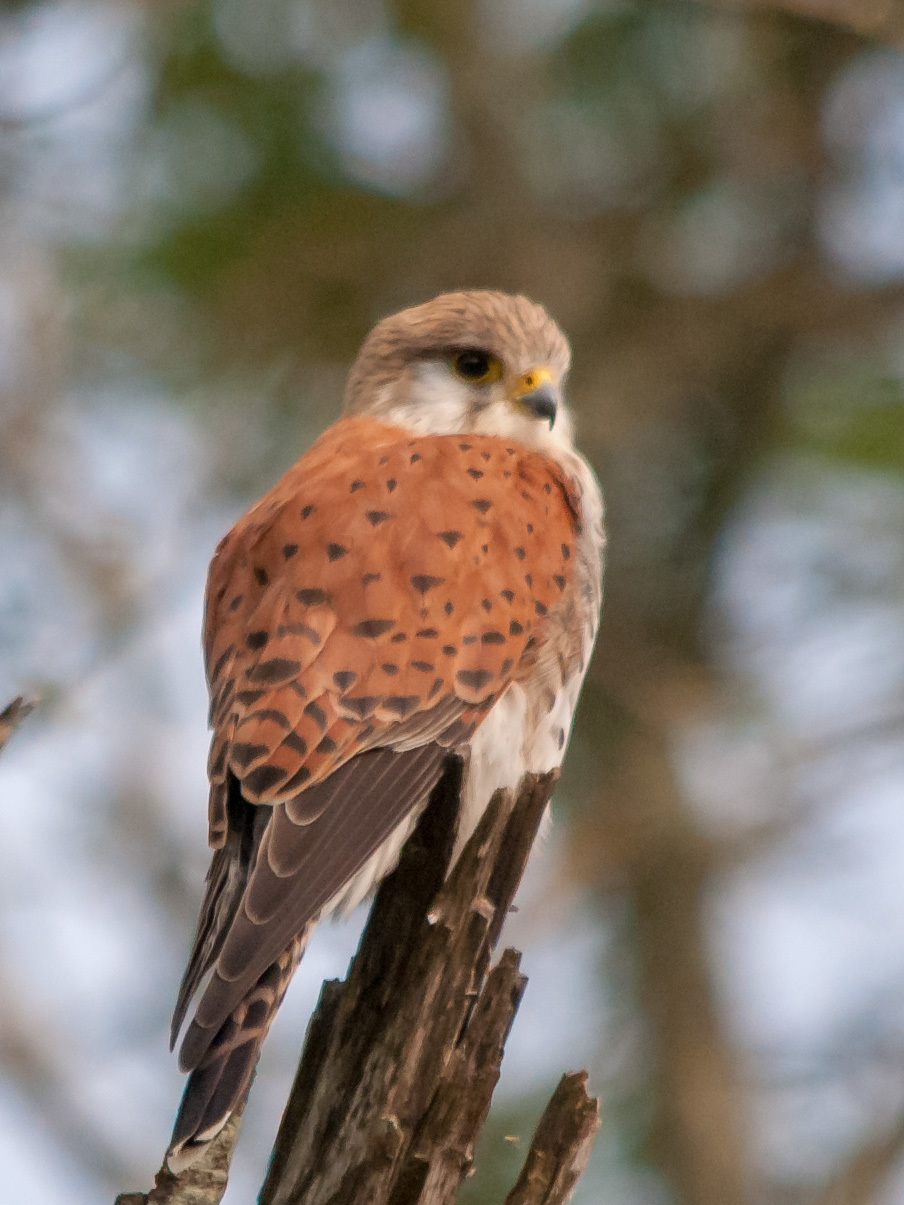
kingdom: Animalia
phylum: Chordata
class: Aves
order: Falconiformes
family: Falconidae
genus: Falco
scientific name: Falco newtoni
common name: Malagasy kestrel
